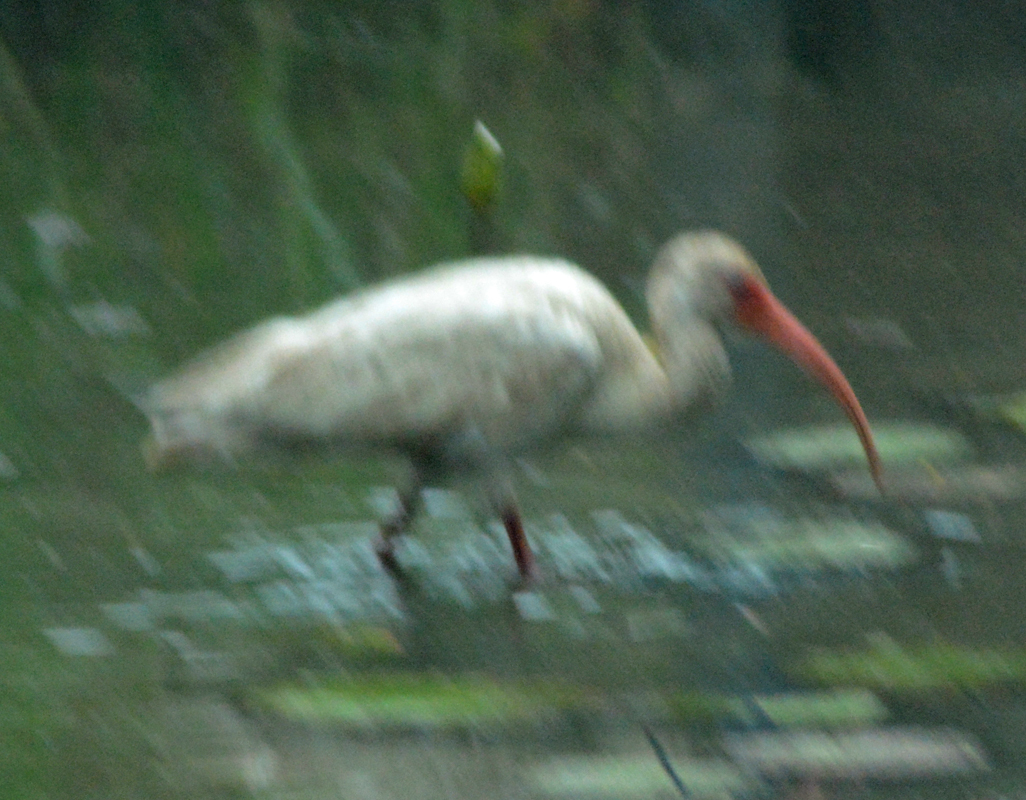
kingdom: Animalia
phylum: Chordata
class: Aves
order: Pelecaniformes
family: Threskiornithidae
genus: Eudocimus
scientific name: Eudocimus albus
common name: White ibis
